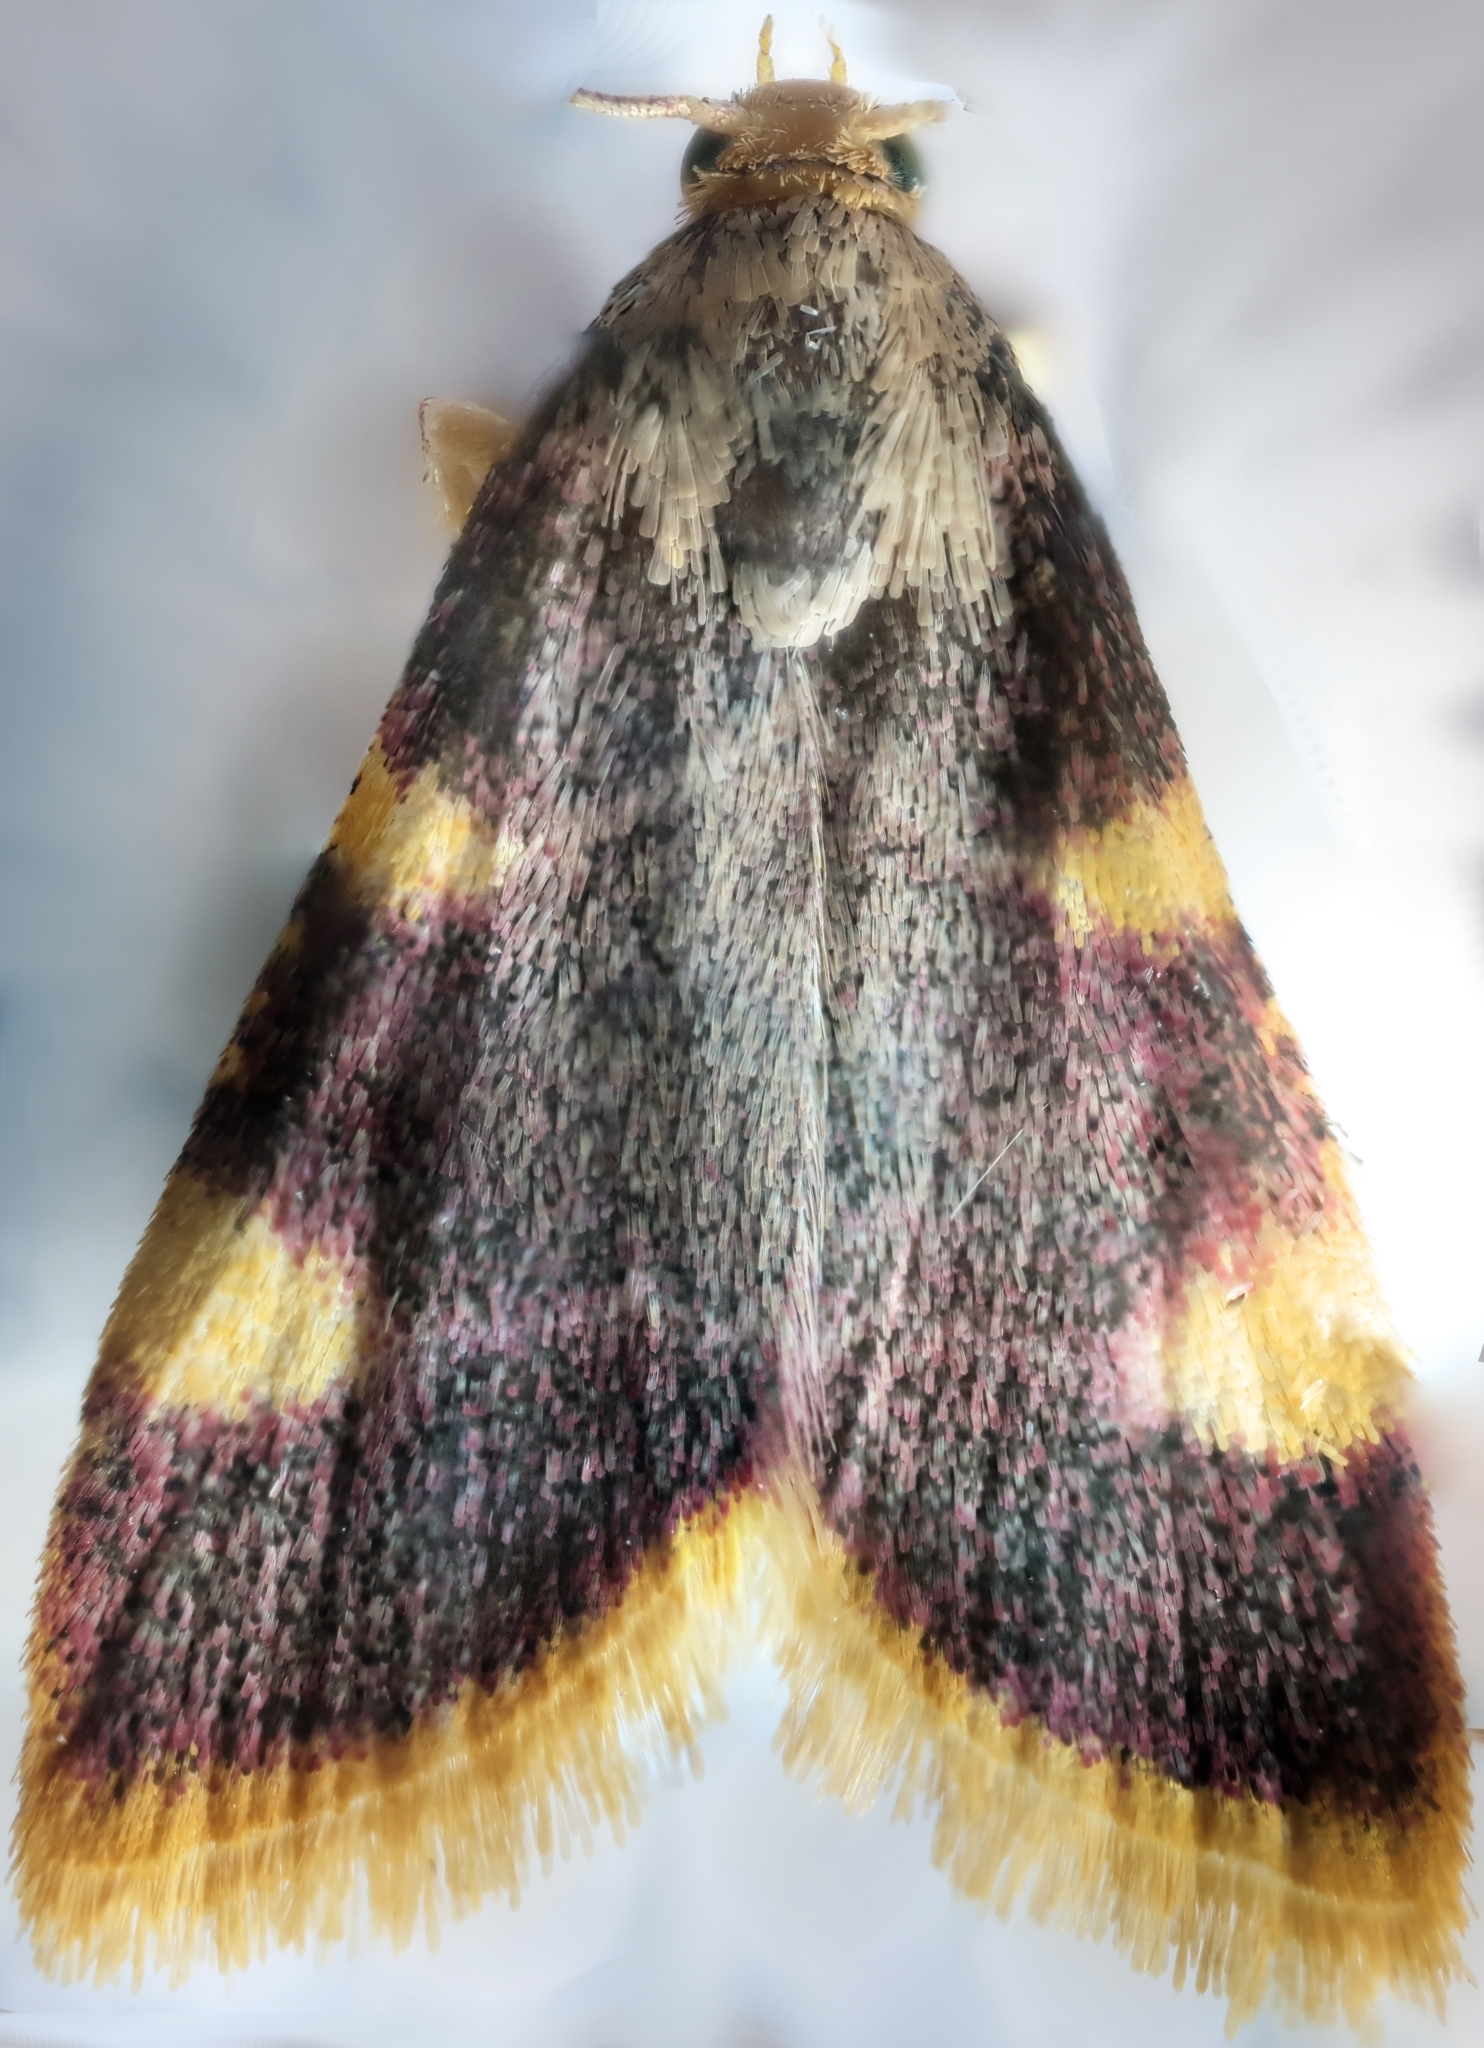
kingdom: Animalia
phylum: Arthropoda
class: Insecta
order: Lepidoptera
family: Pyralidae
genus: Hypsopygia
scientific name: Hypsopygia costalis
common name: Gold triangle
